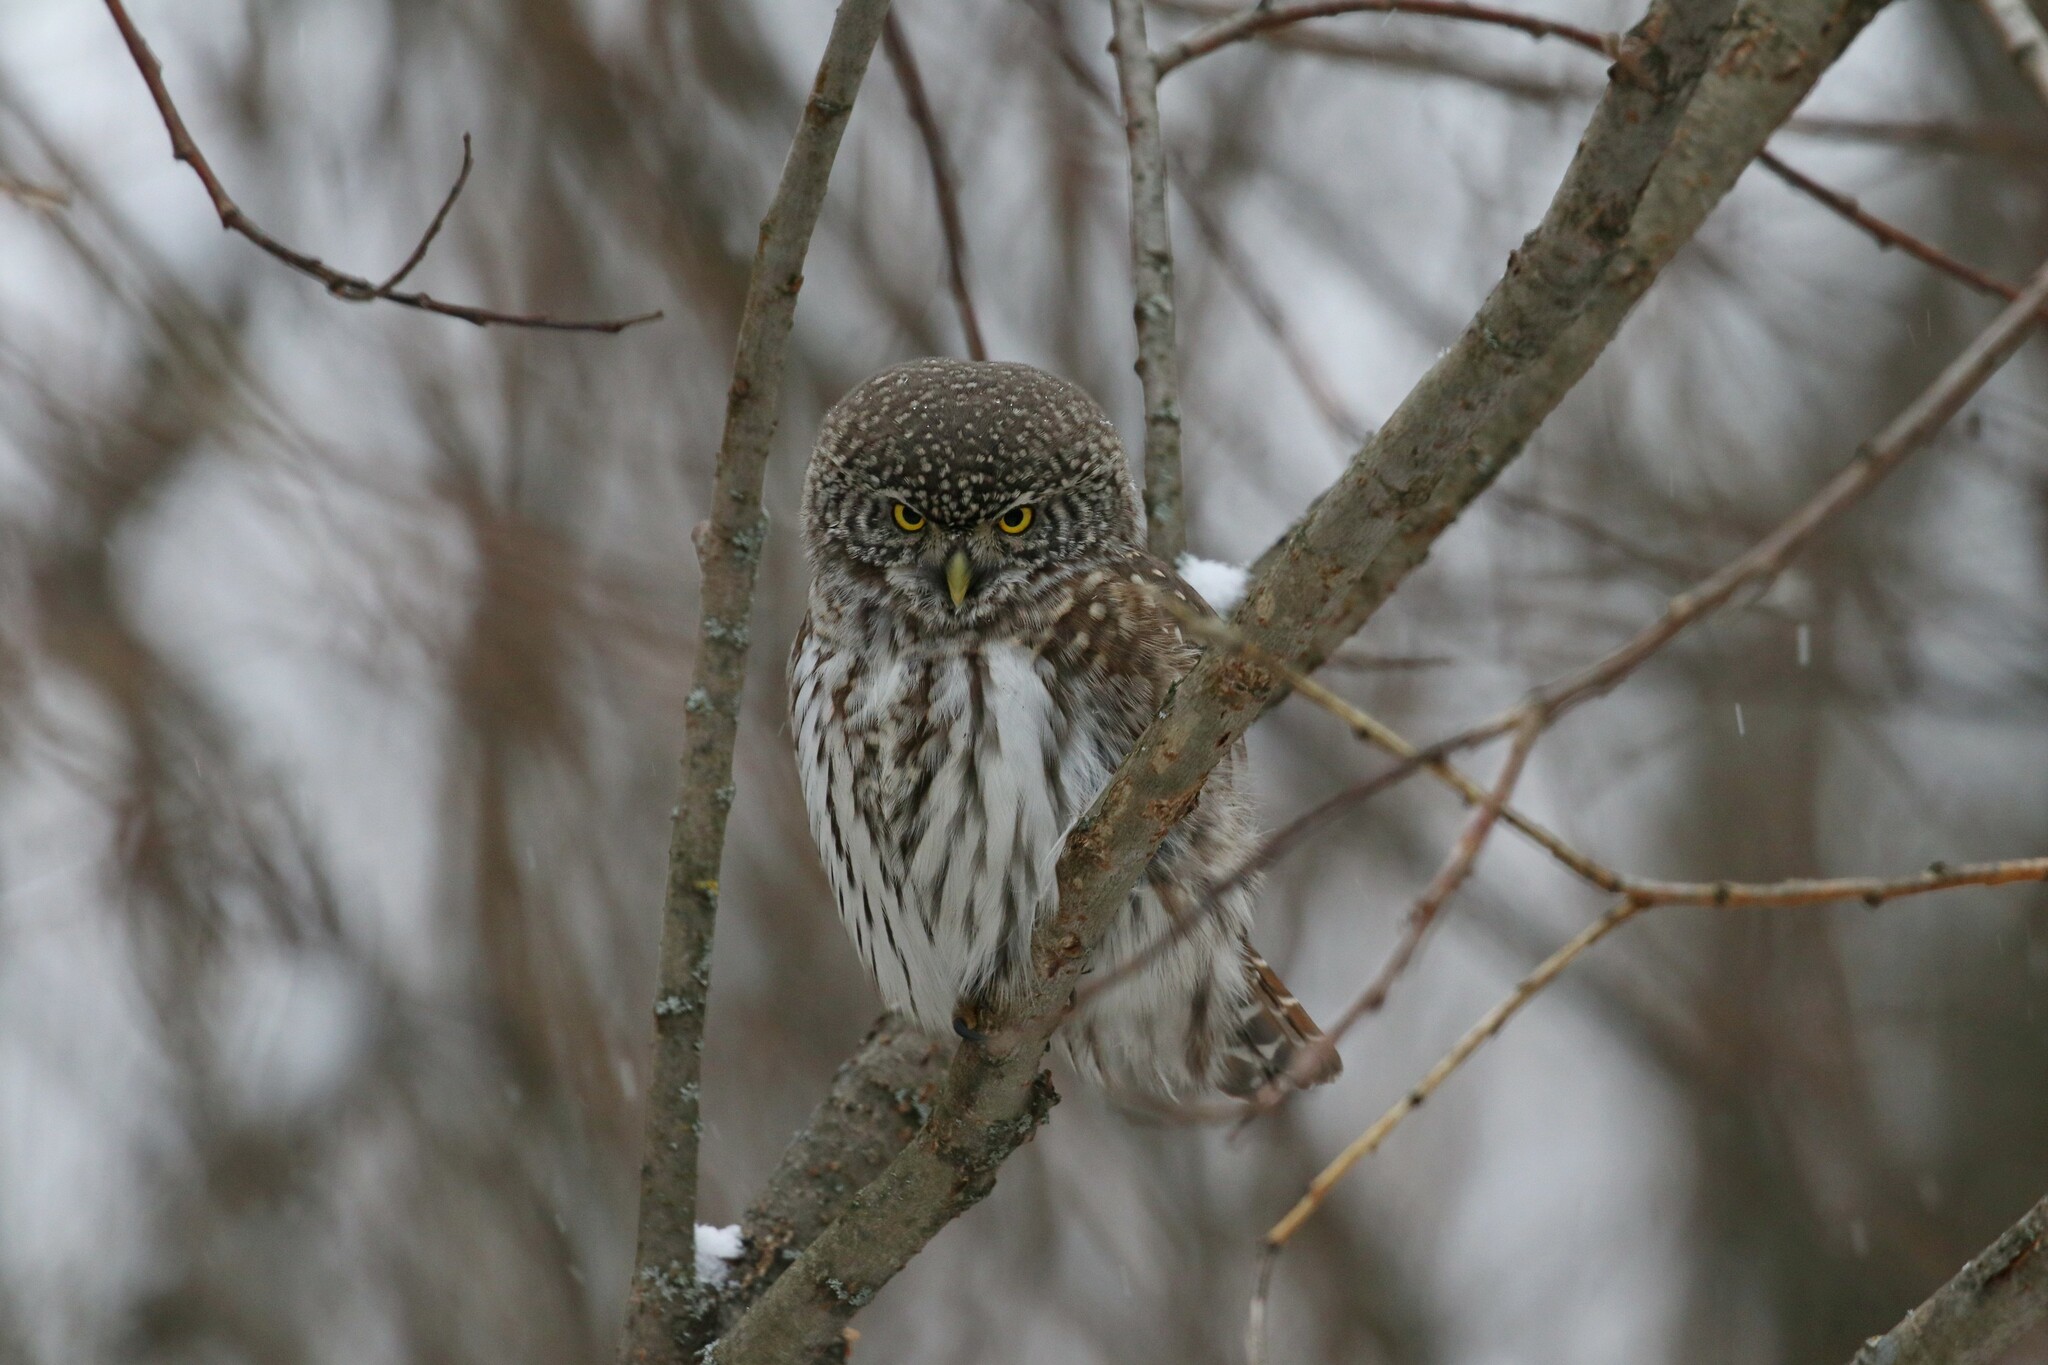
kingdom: Animalia
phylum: Chordata
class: Aves
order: Strigiformes
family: Strigidae
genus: Glaucidium
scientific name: Glaucidium passerinum
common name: Eurasian pygmy owl
